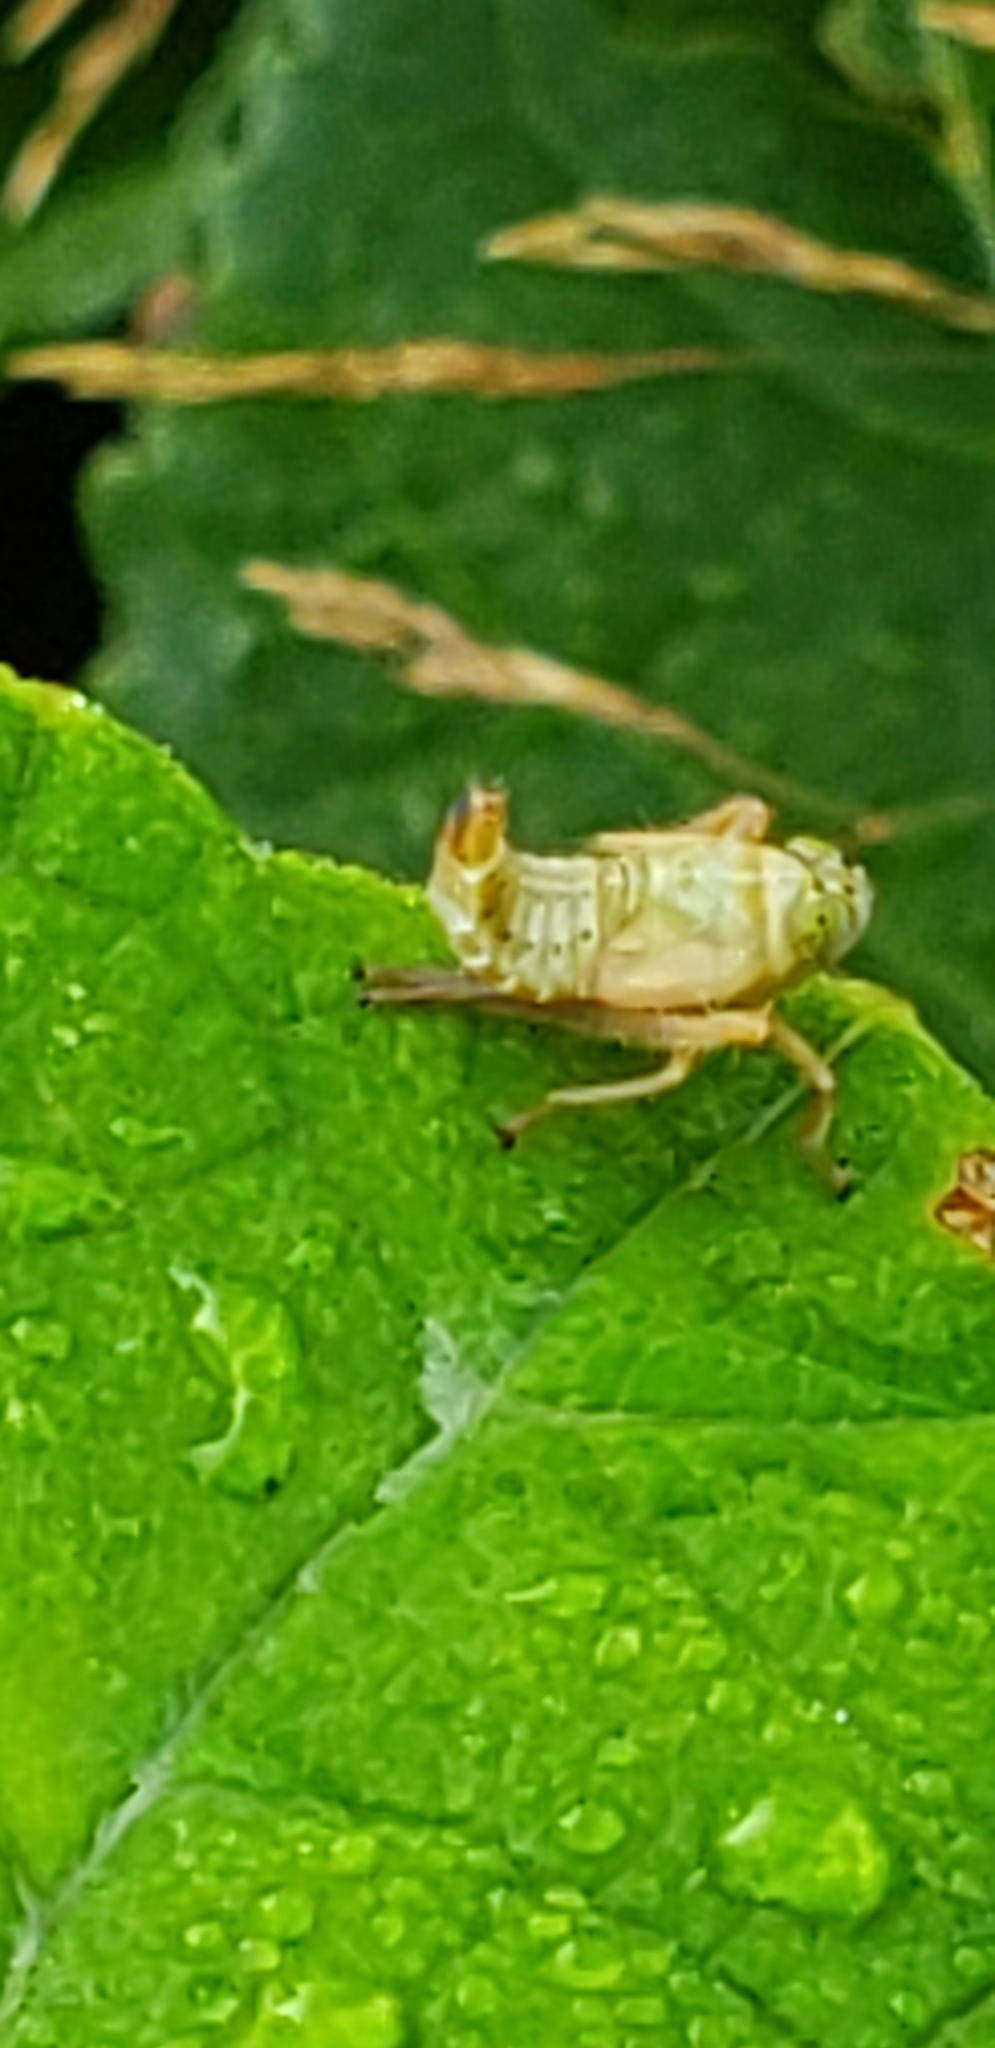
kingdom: Animalia
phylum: Arthropoda
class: Insecta
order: Hemiptera
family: Cicadellidae
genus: Jikradia
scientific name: Jikradia olitoria
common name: Coppery leafhopper
